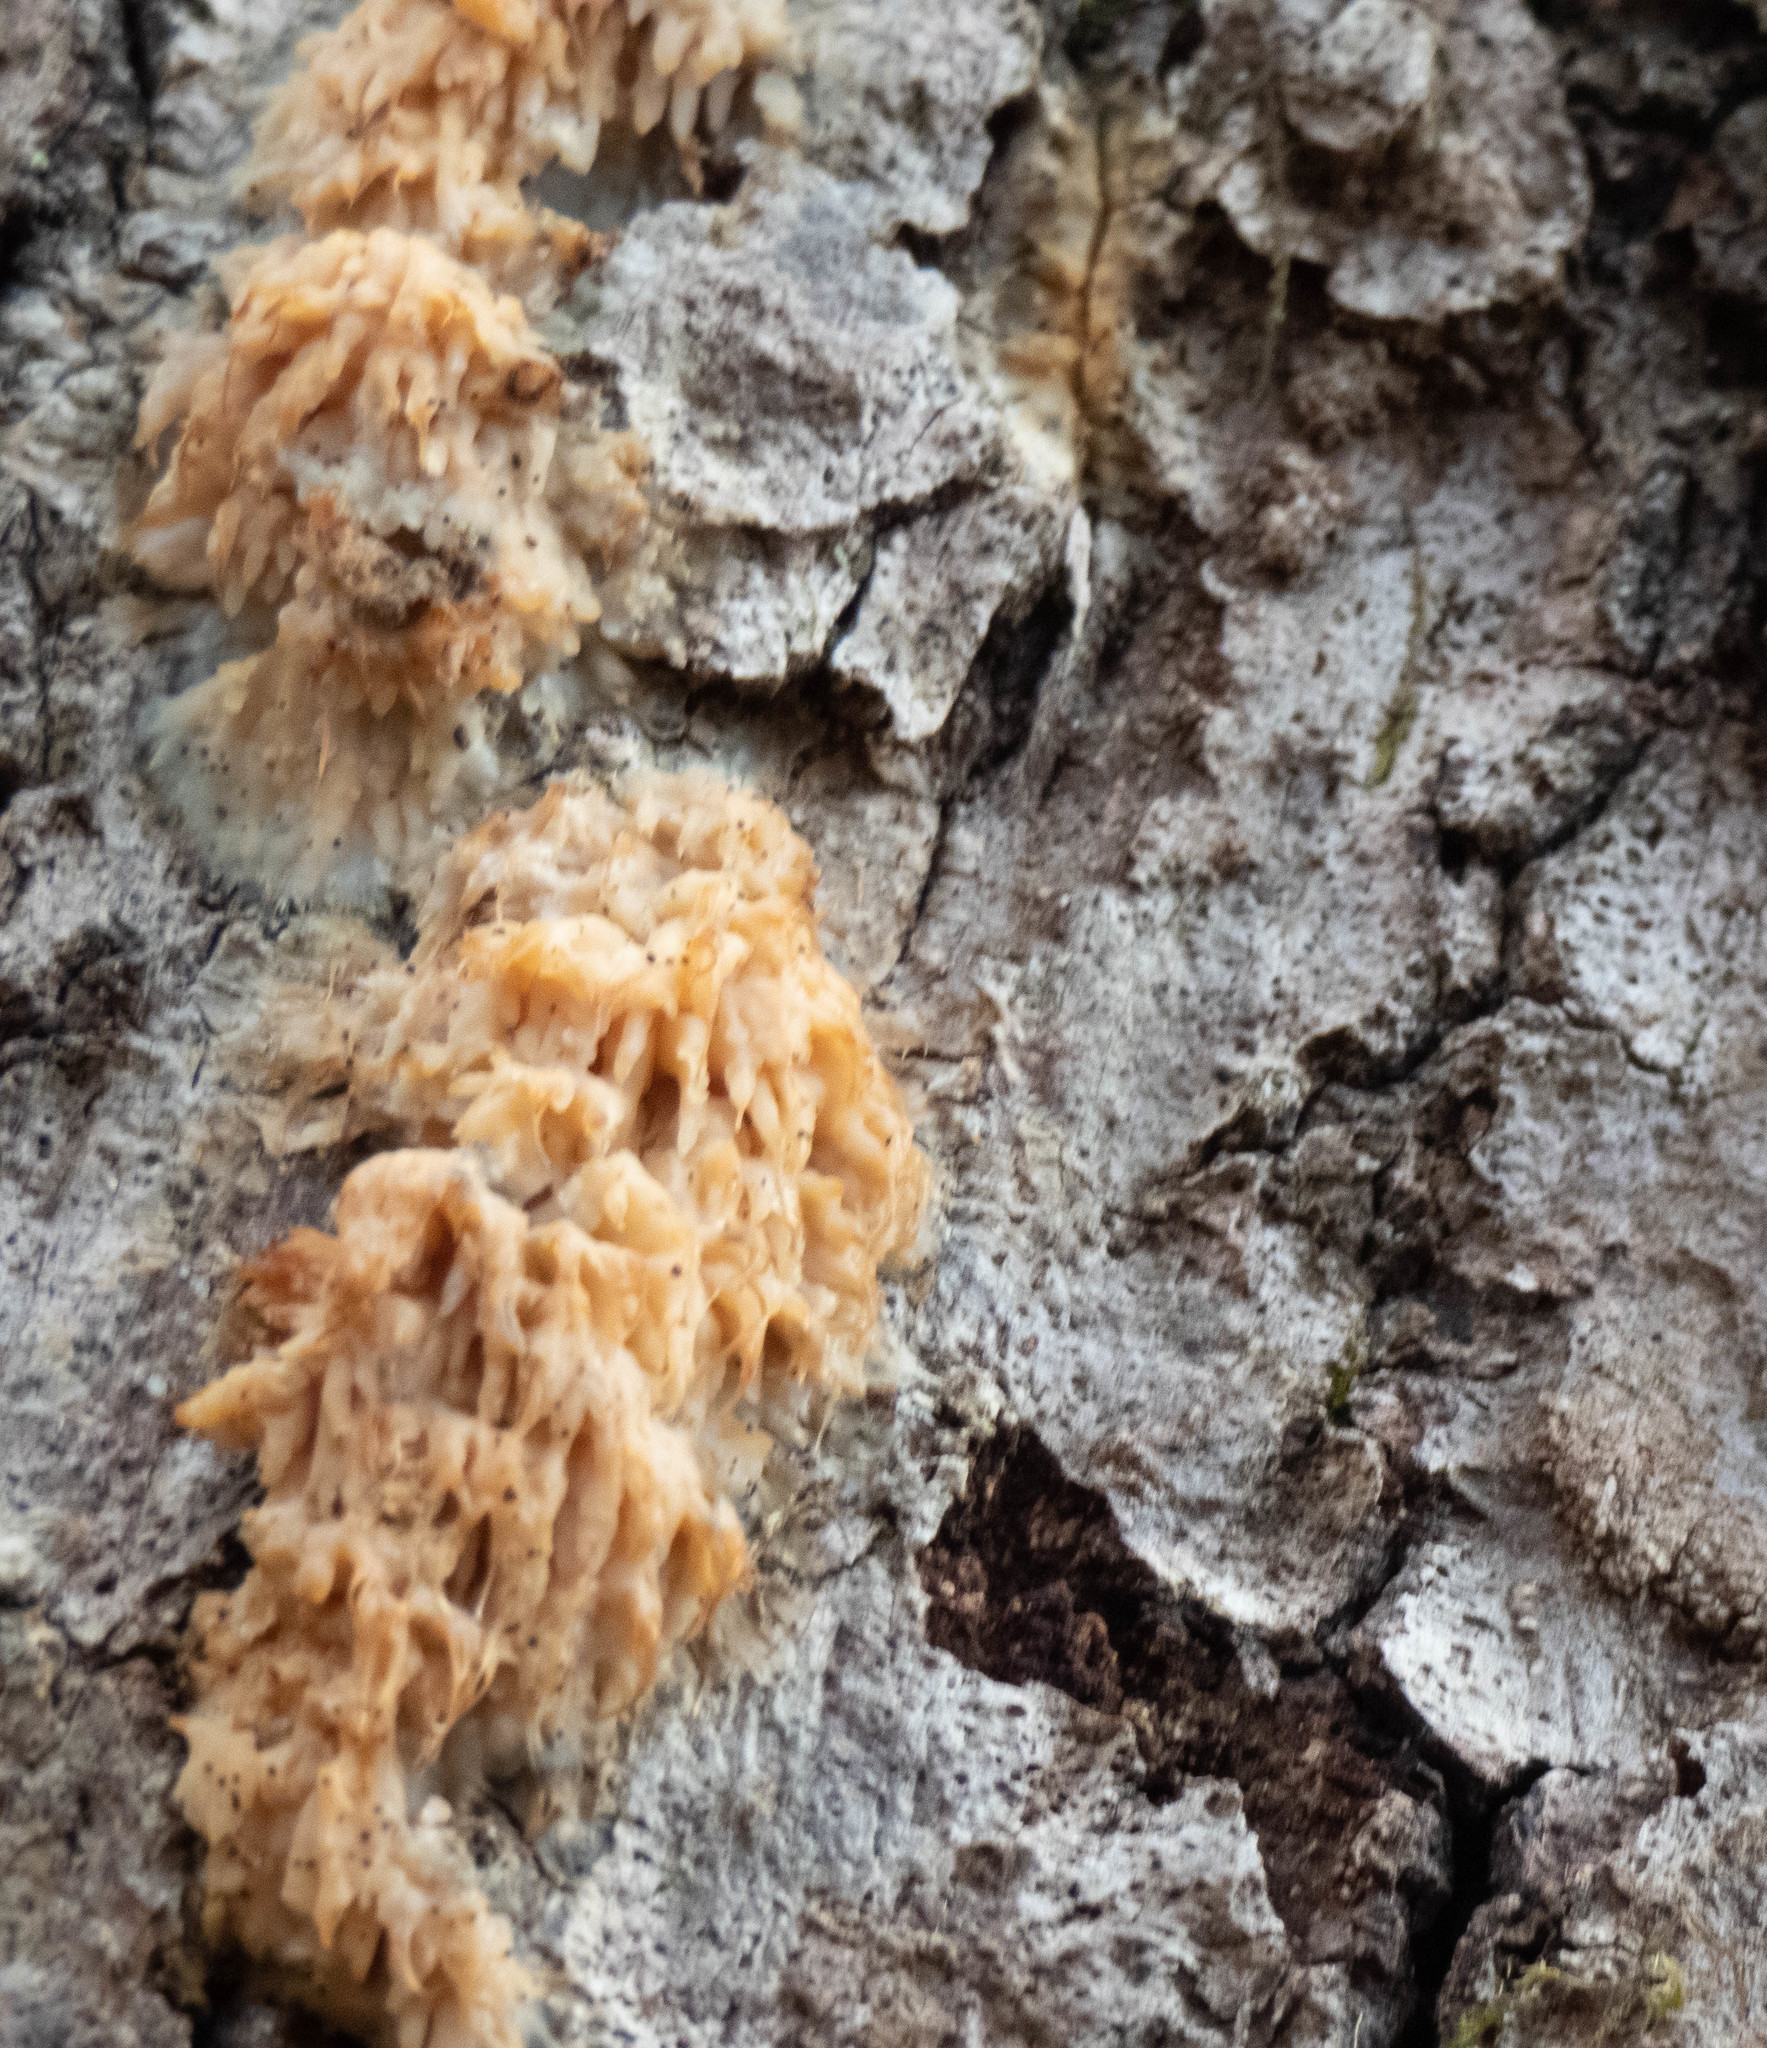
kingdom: Fungi
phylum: Basidiomycota
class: Agaricomycetes
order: Agaricales
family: Radulomycetaceae
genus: Radulomyces
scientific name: Radulomyces copelandii
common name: Asian beauty
